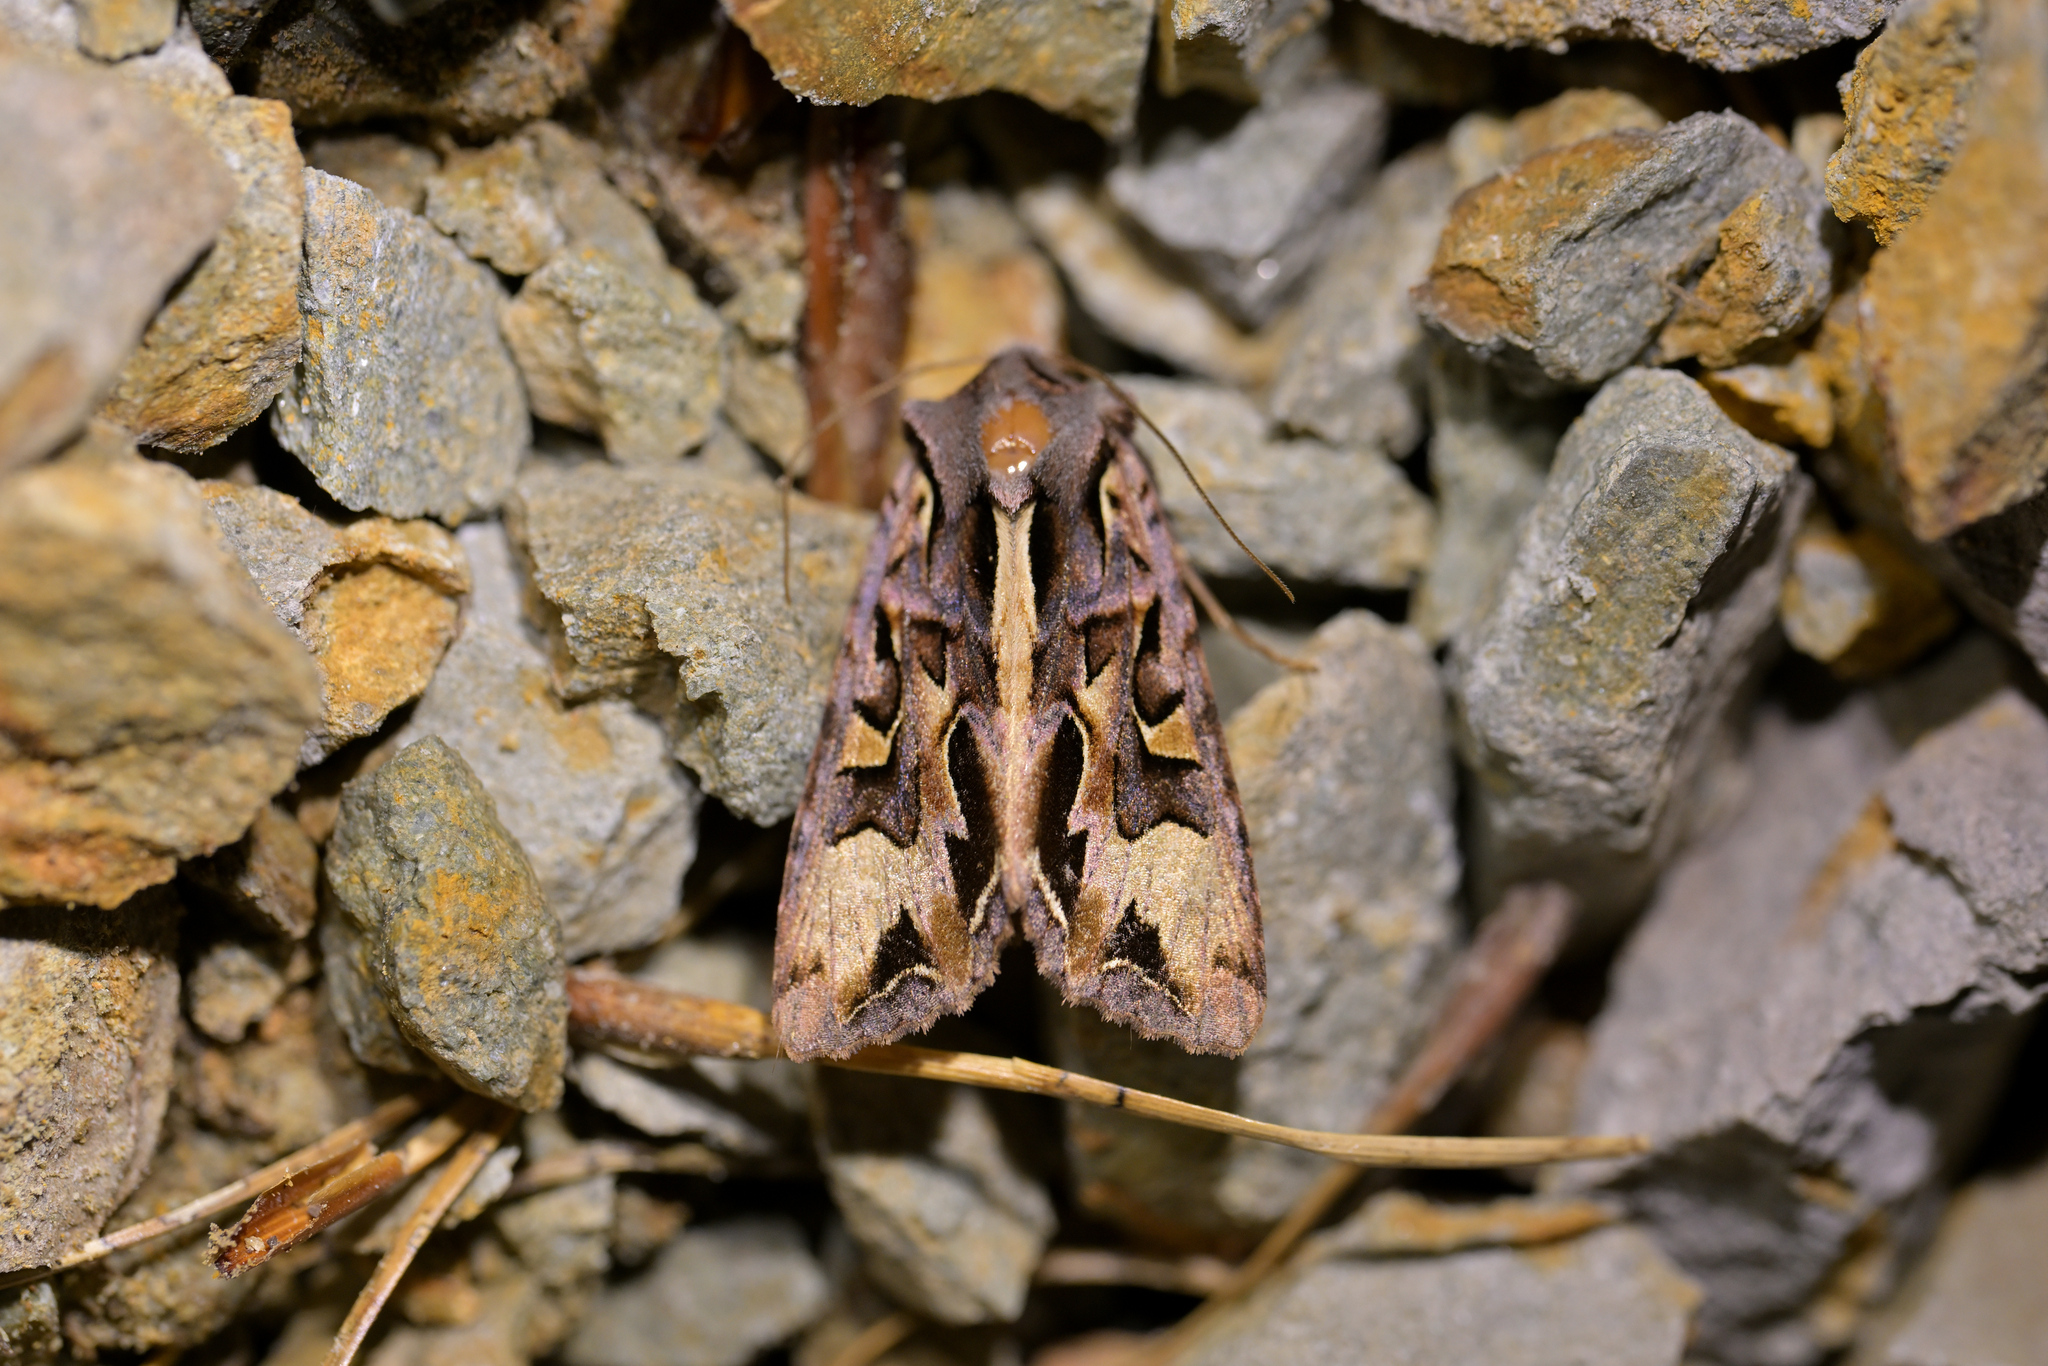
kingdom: Animalia
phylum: Arthropoda
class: Insecta
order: Lepidoptera
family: Noctuidae
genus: Ichneutica
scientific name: Ichneutica
